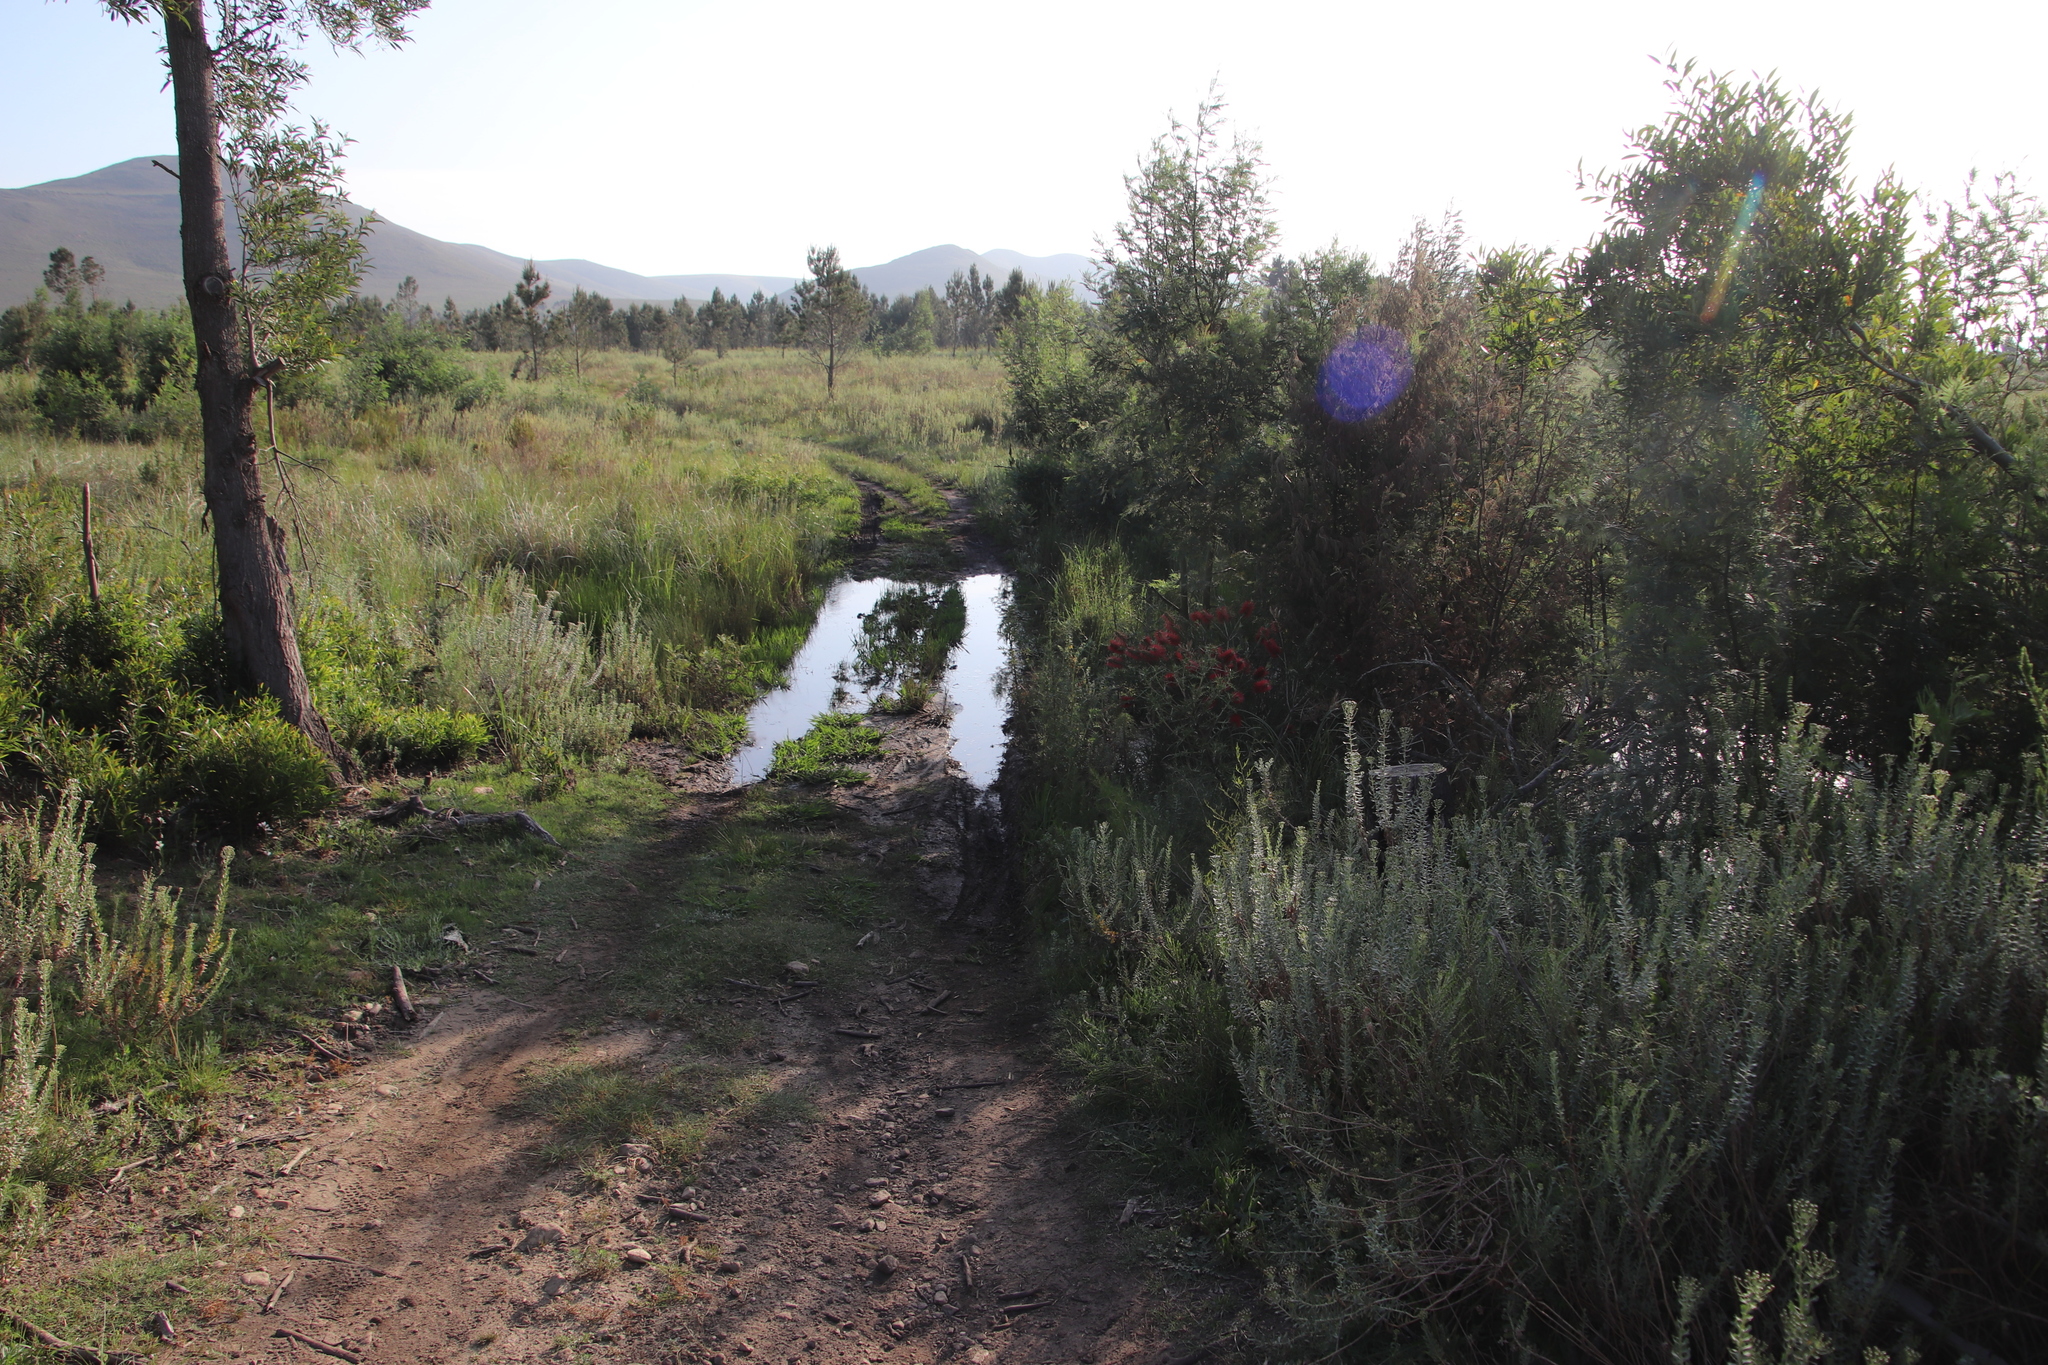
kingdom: Plantae
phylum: Tracheophyta
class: Magnoliopsida
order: Myrtales
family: Myrtaceae
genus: Callistemon
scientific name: Callistemon linearis
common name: Narrow-leaf bottlebrush
